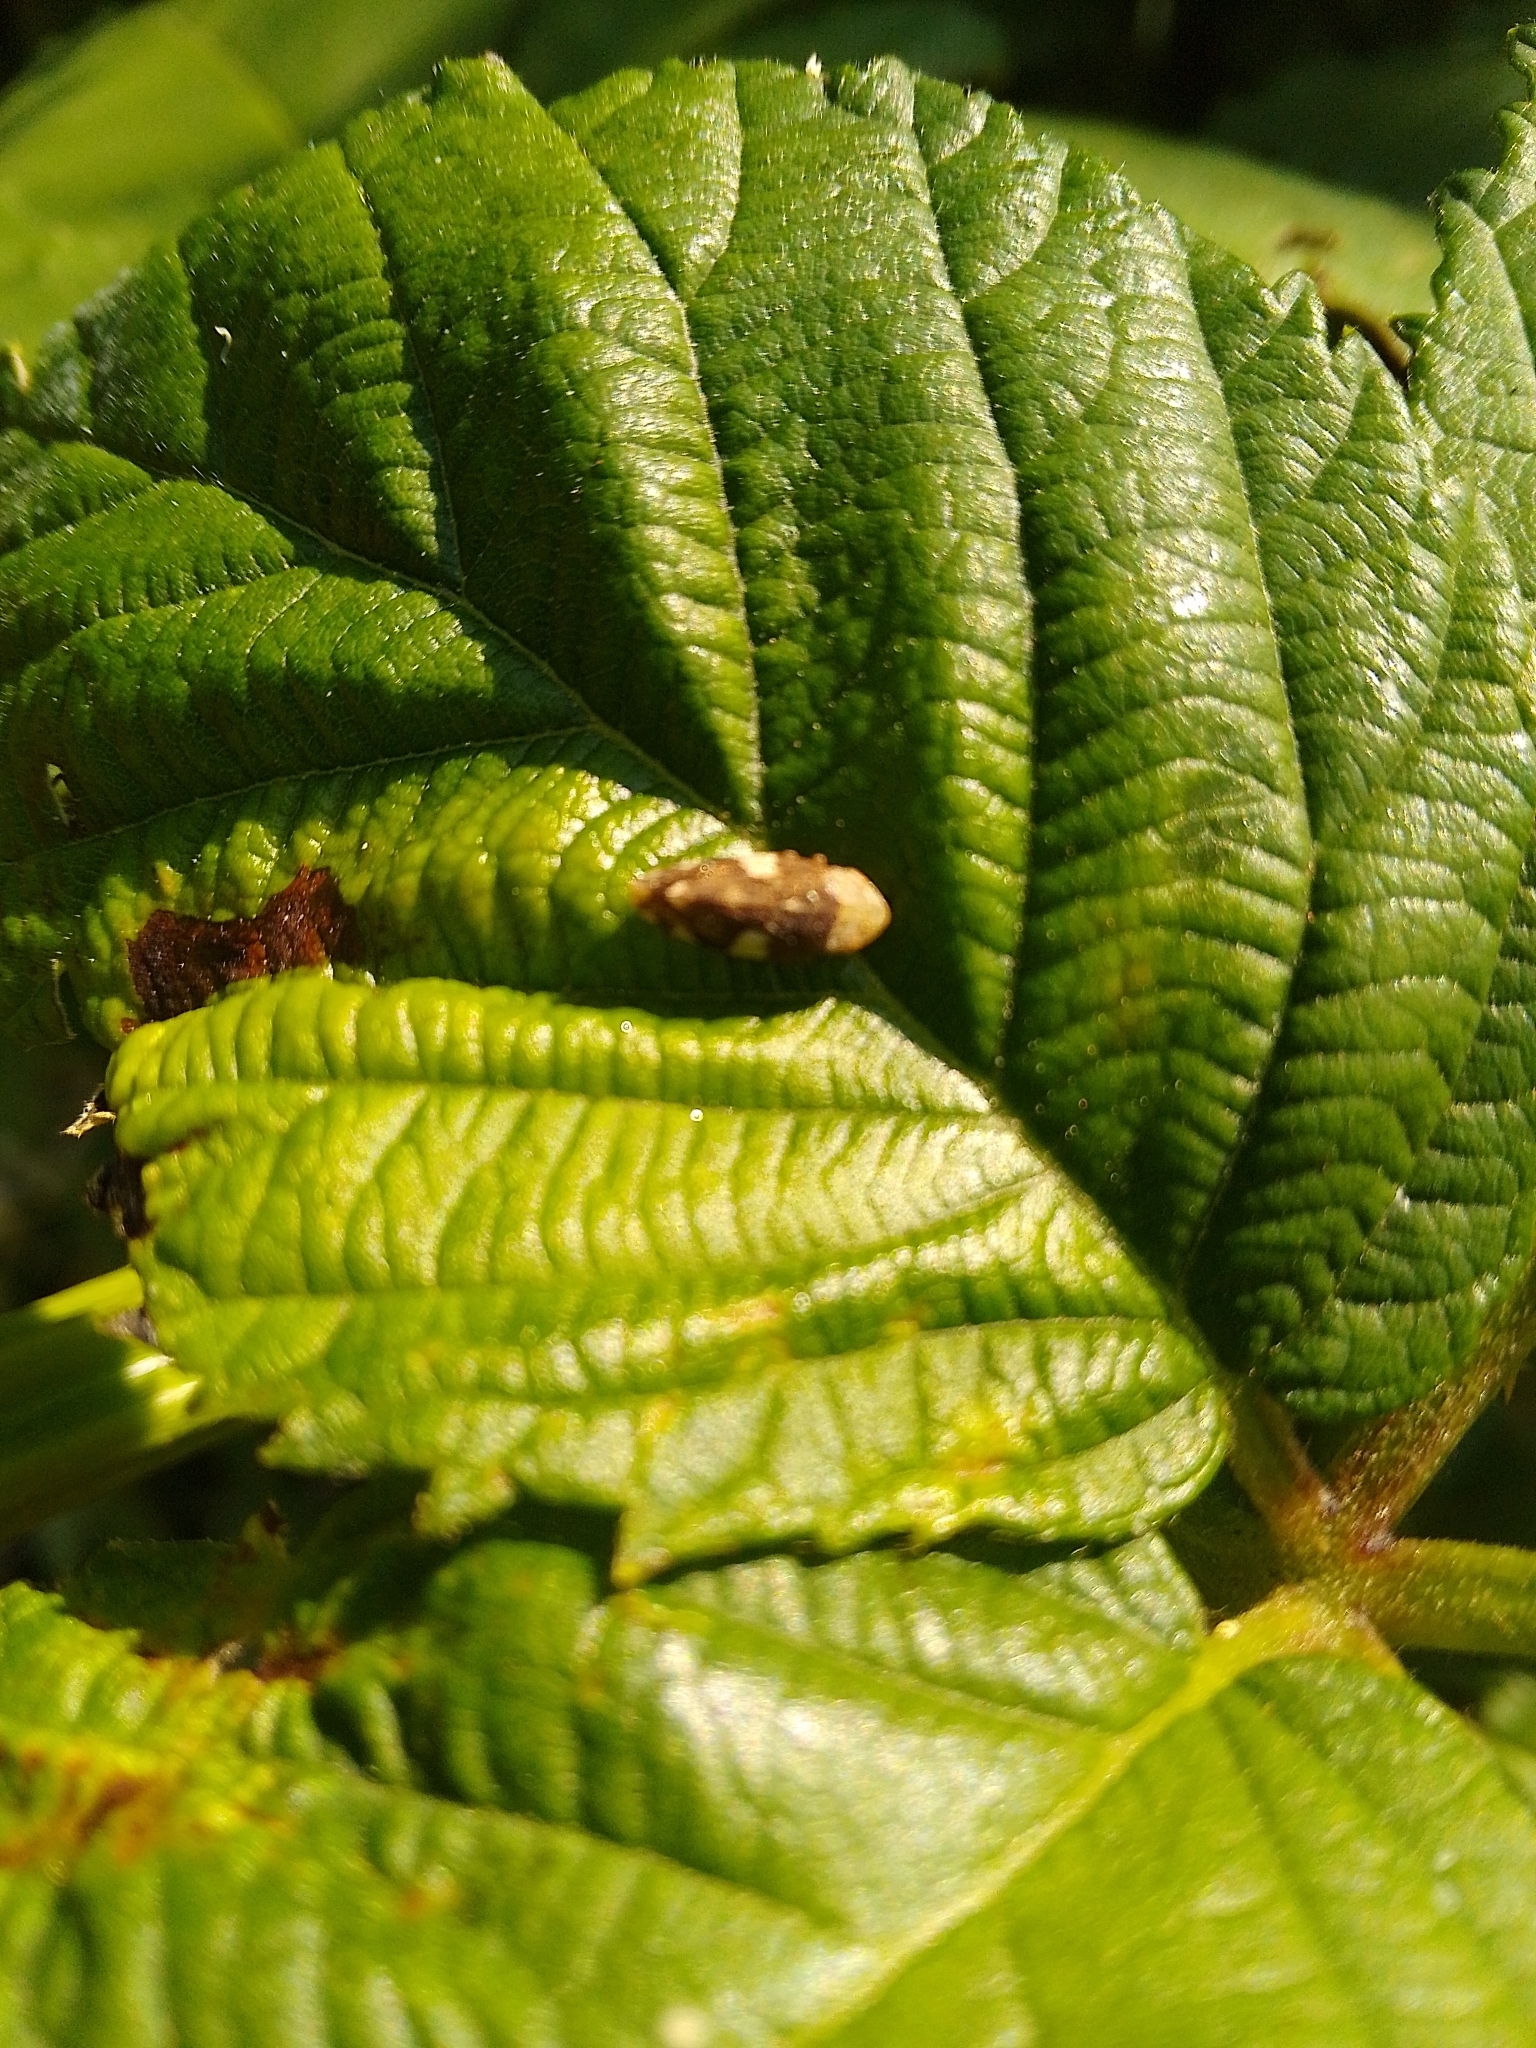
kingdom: Animalia
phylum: Arthropoda
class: Insecta
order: Hemiptera
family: Aphrophoridae
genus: Philaenus
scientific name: Philaenus spumarius
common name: Meadow spittlebug
